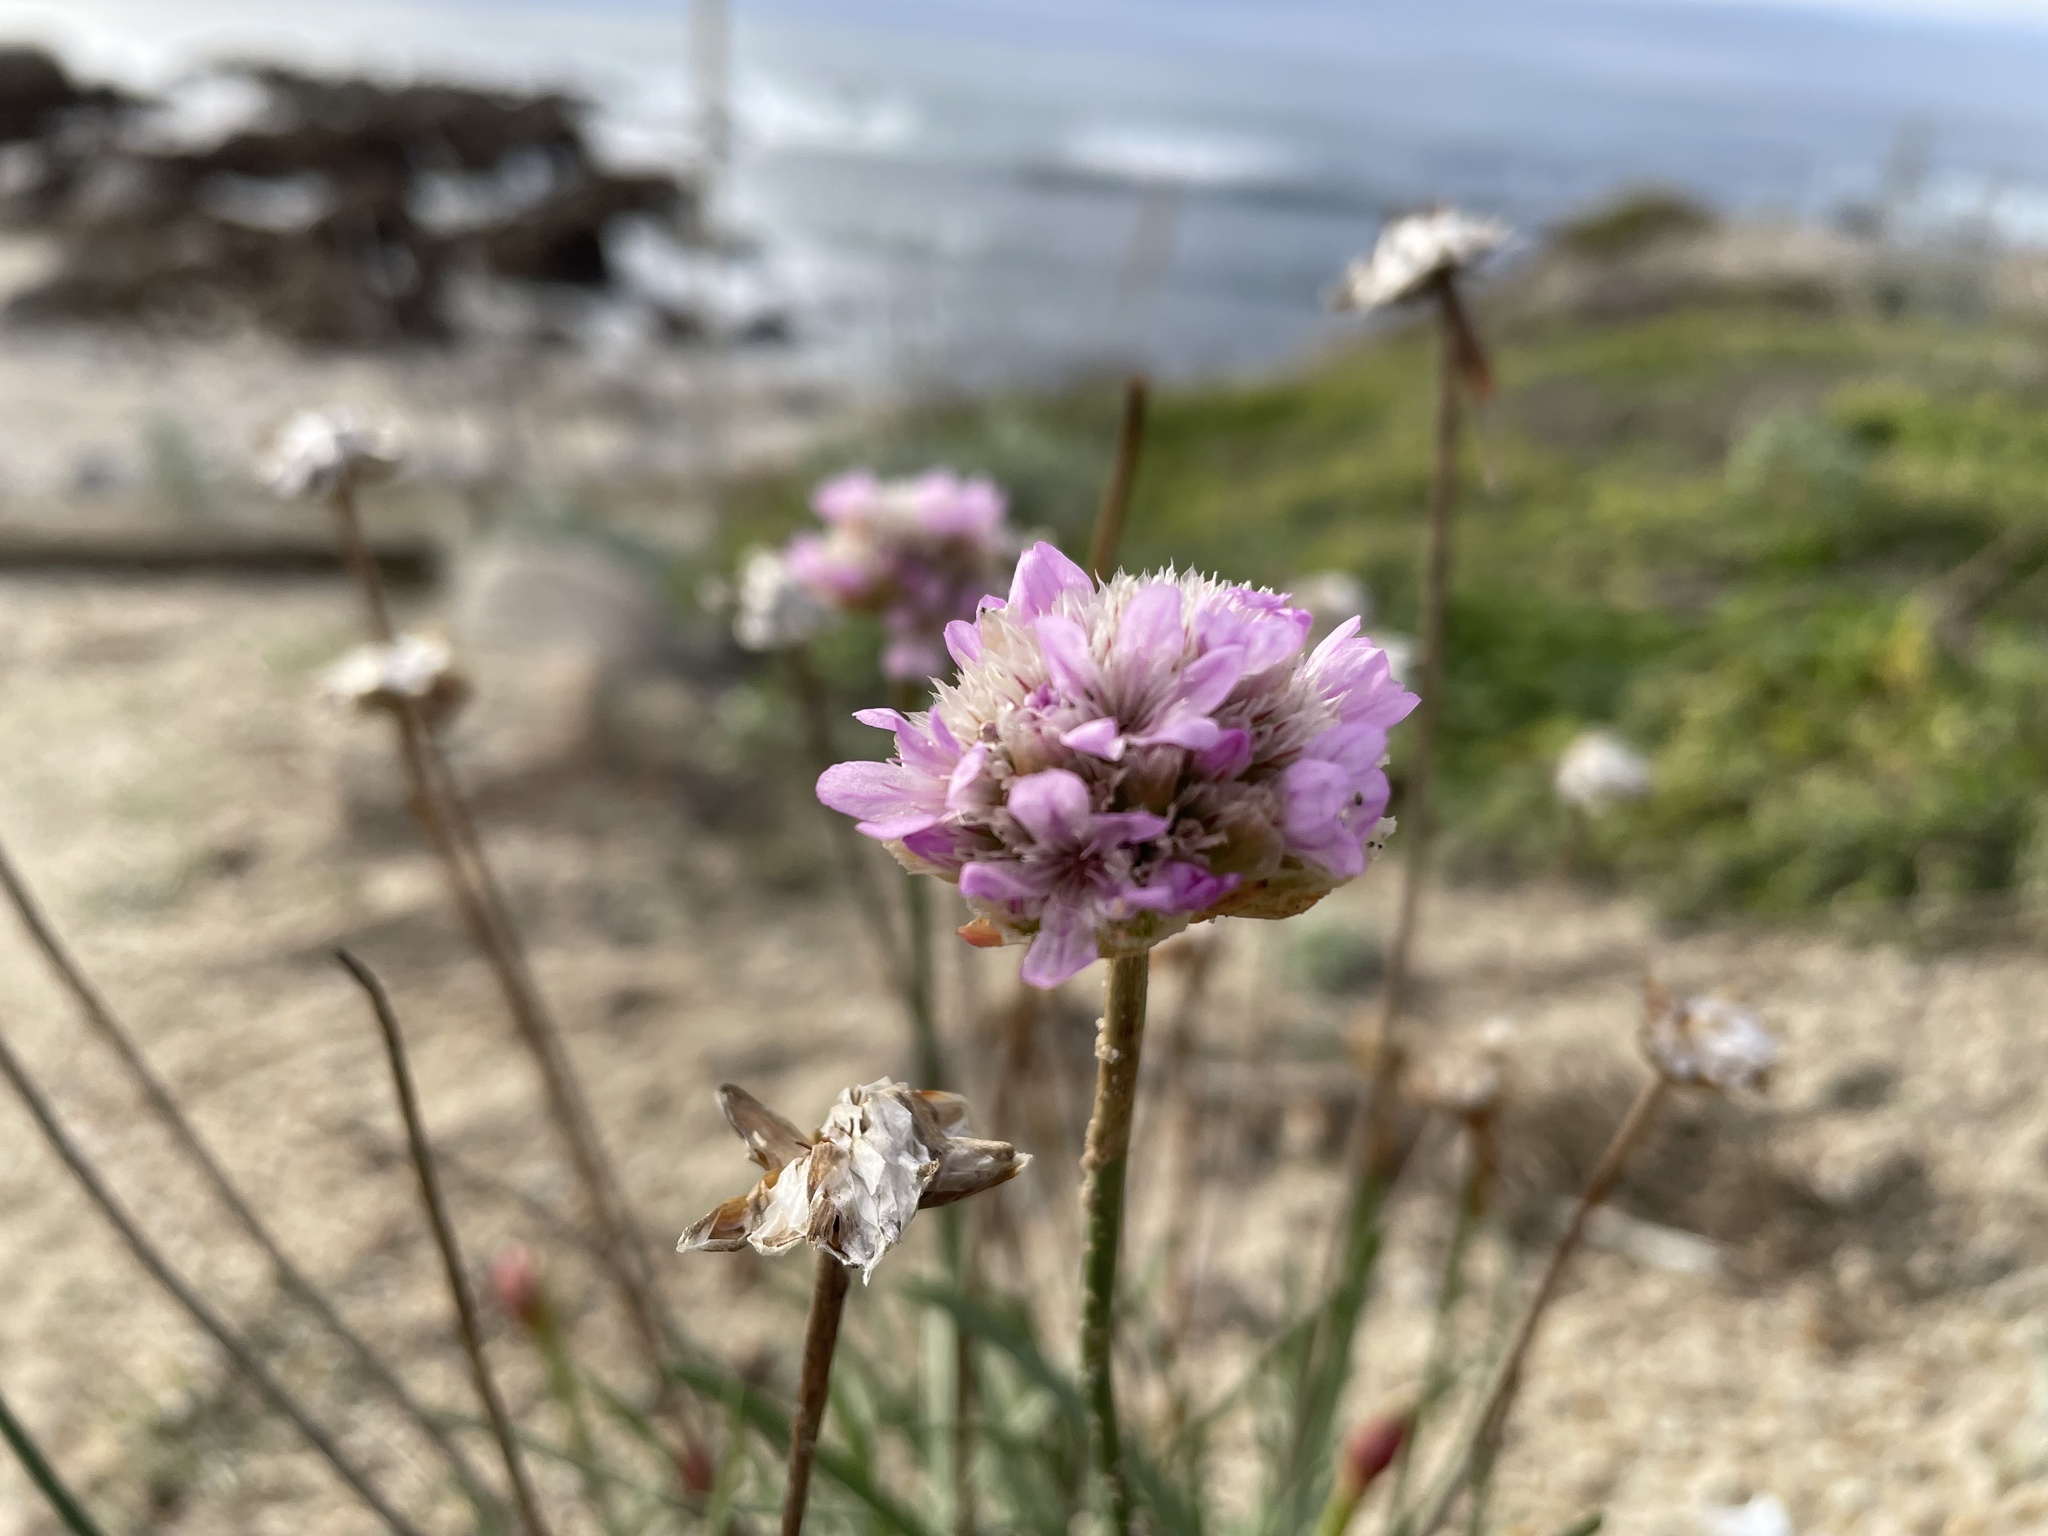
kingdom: Plantae
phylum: Tracheophyta
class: Magnoliopsida
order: Caryophyllales
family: Plumbaginaceae
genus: Armeria
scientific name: Armeria maritima
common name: Thrift
